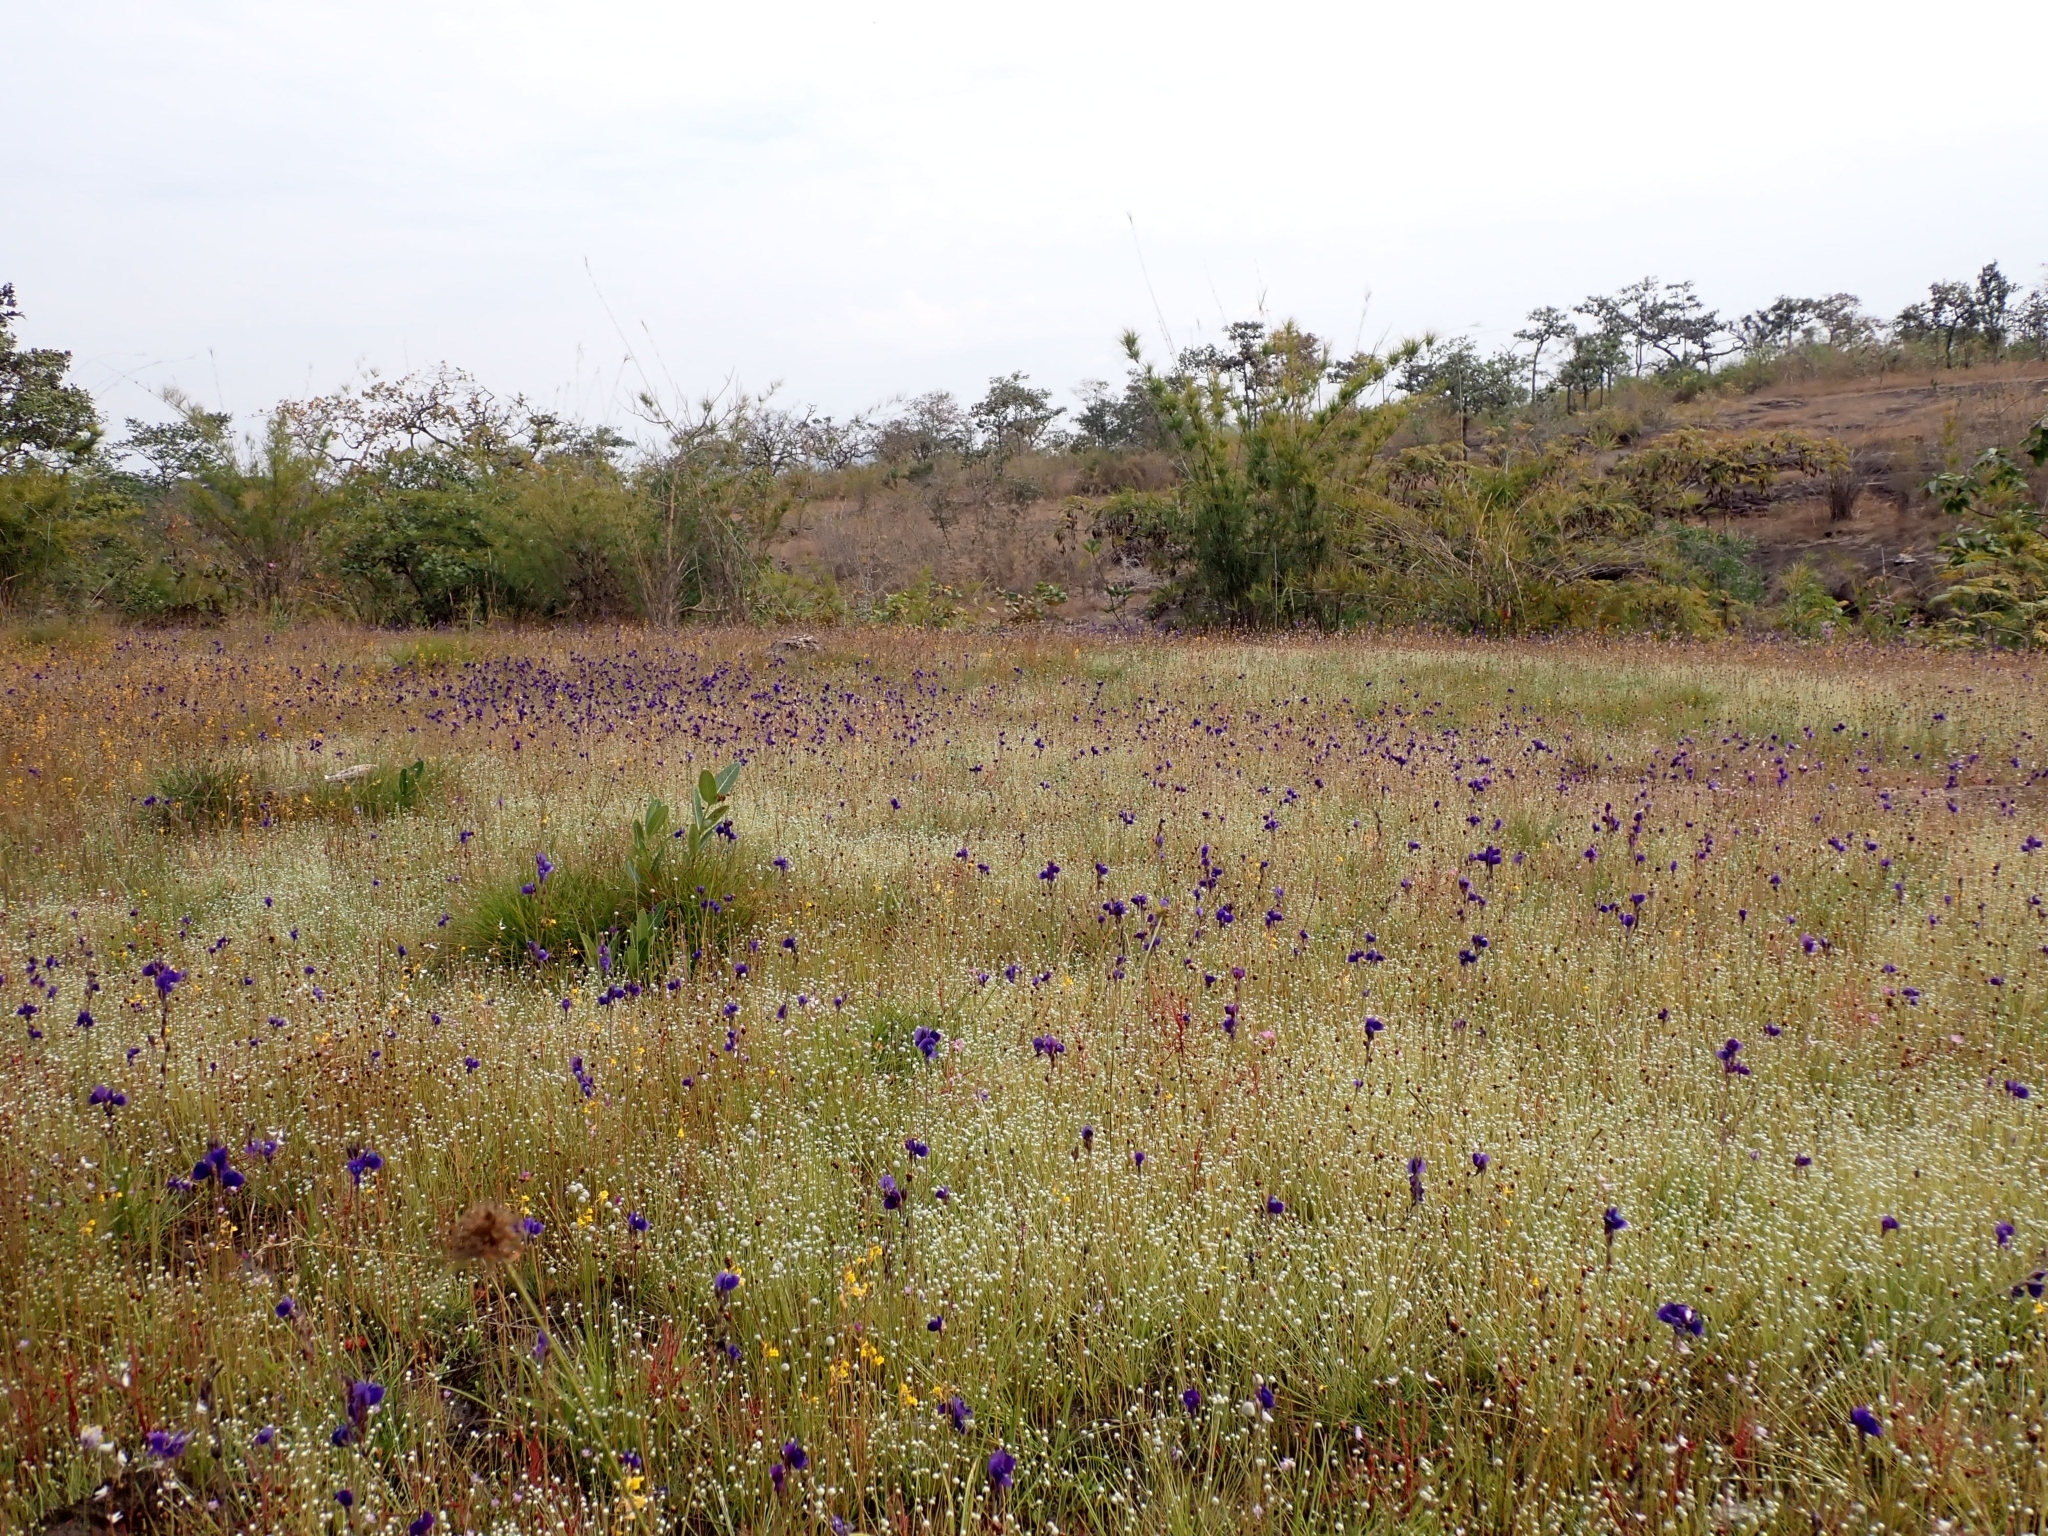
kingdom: Plantae
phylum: Tracheophyta
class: Magnoliopsida
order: Lamiales
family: Lentibulariaceae
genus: Utricularia
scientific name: Utricularia delphinioides
